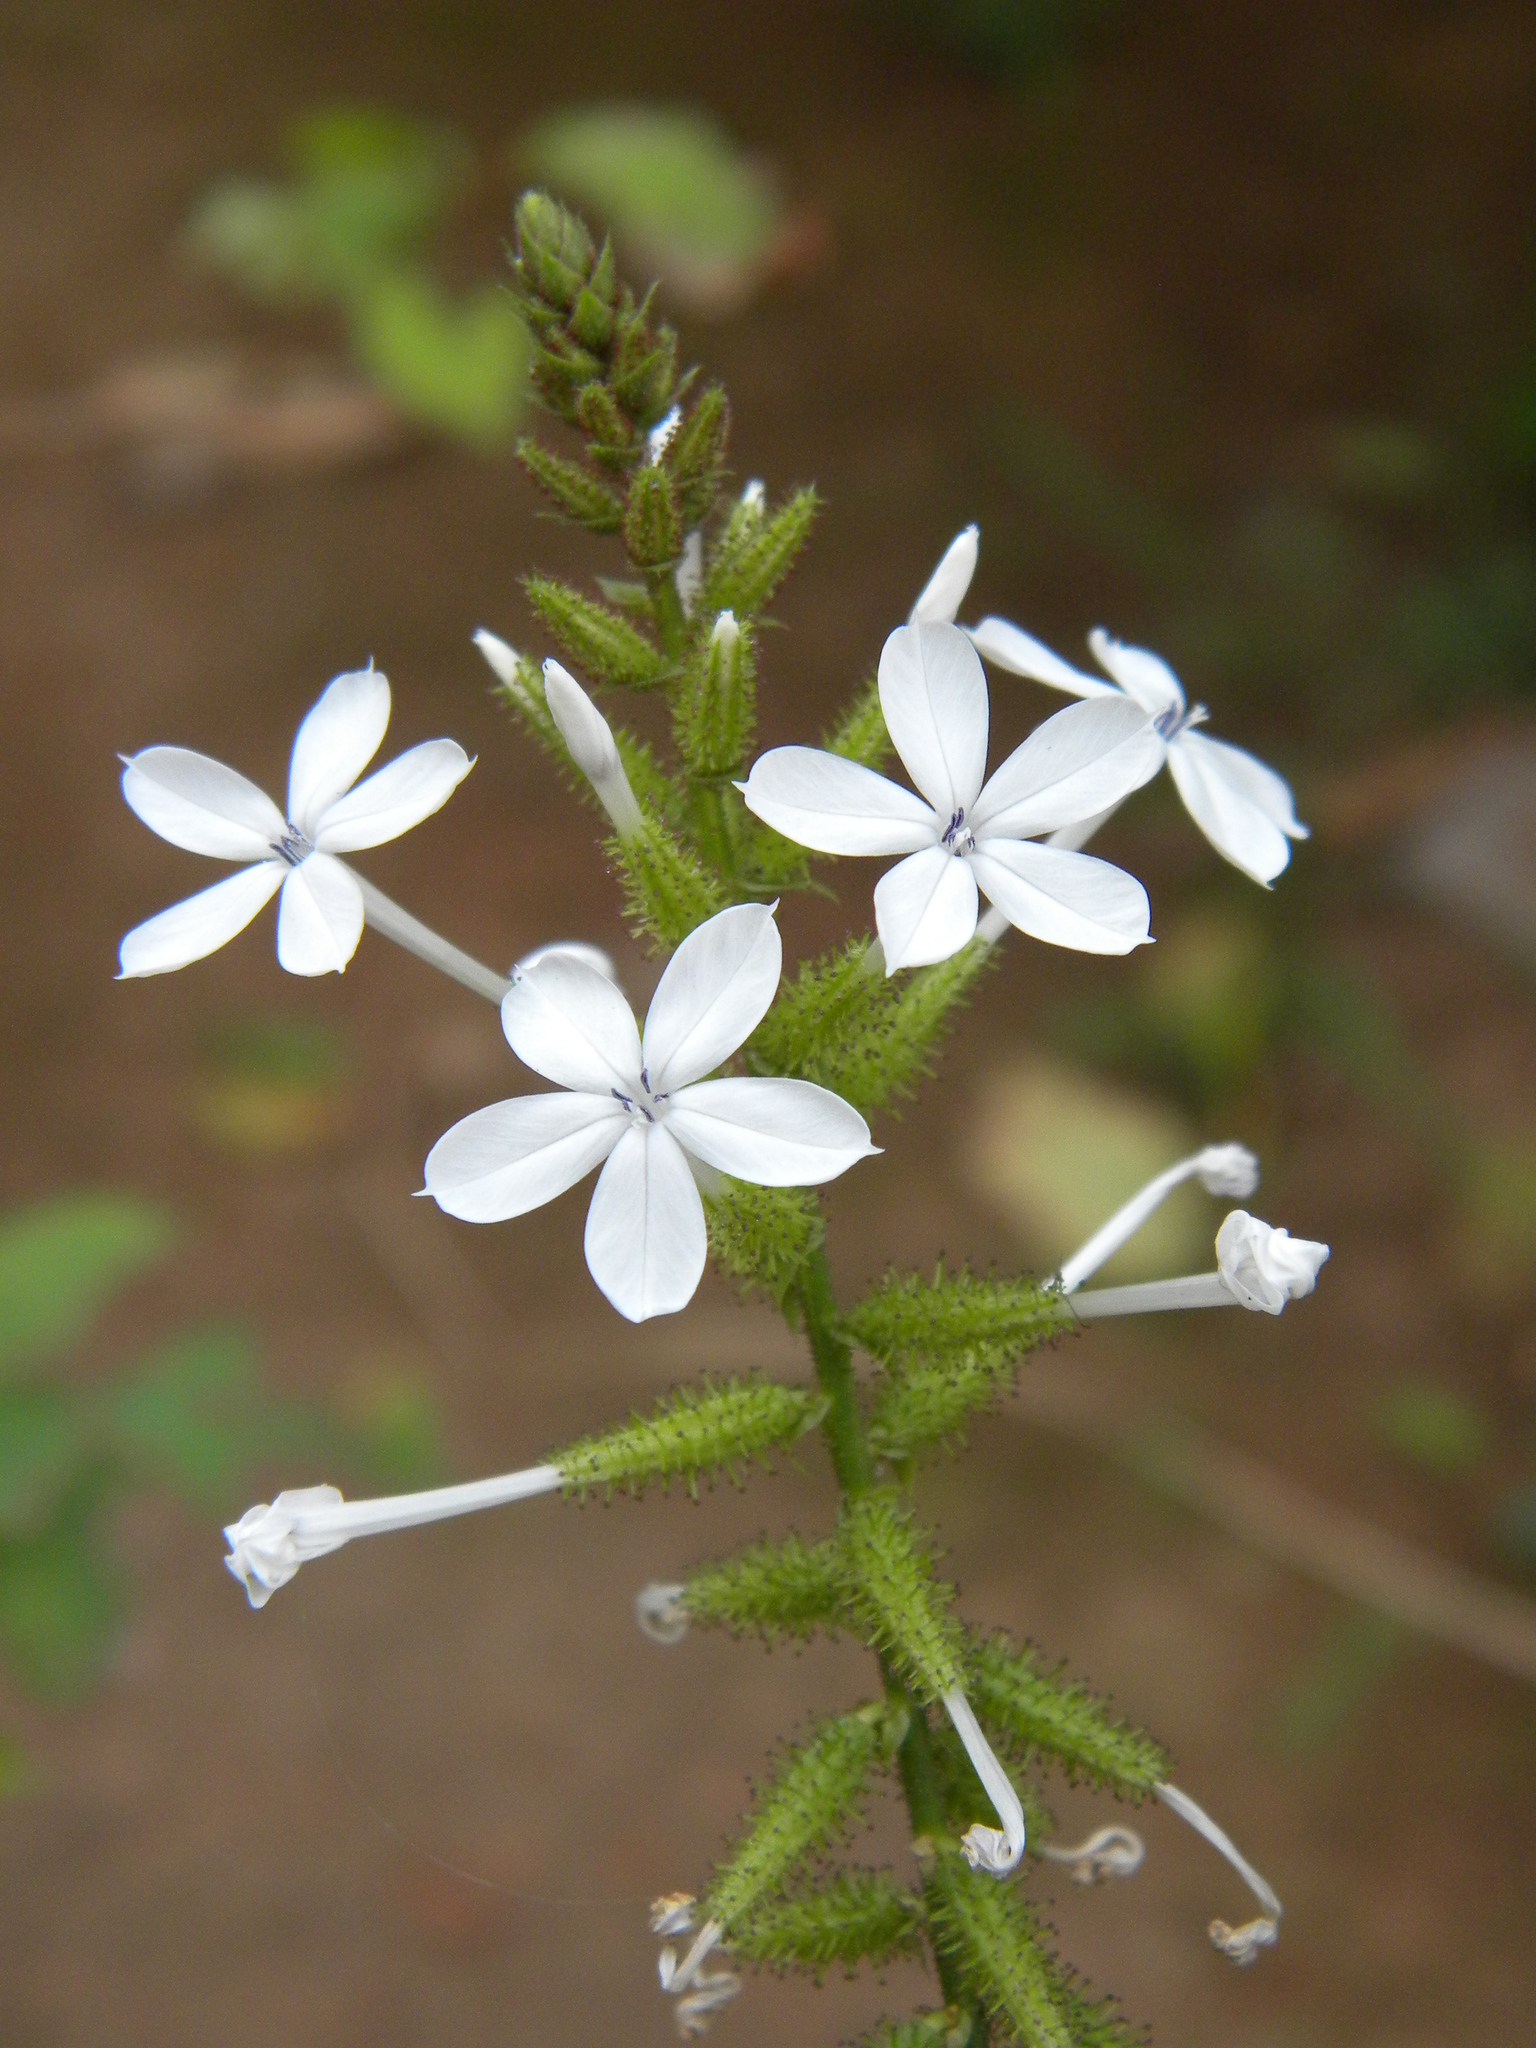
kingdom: Plantae
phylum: Tracheophyta
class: Magnoliopsida
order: Caryophyllales
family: Plumbaginaceae
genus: Plumbago
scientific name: Plumbago zeylanica
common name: Doctorbush
